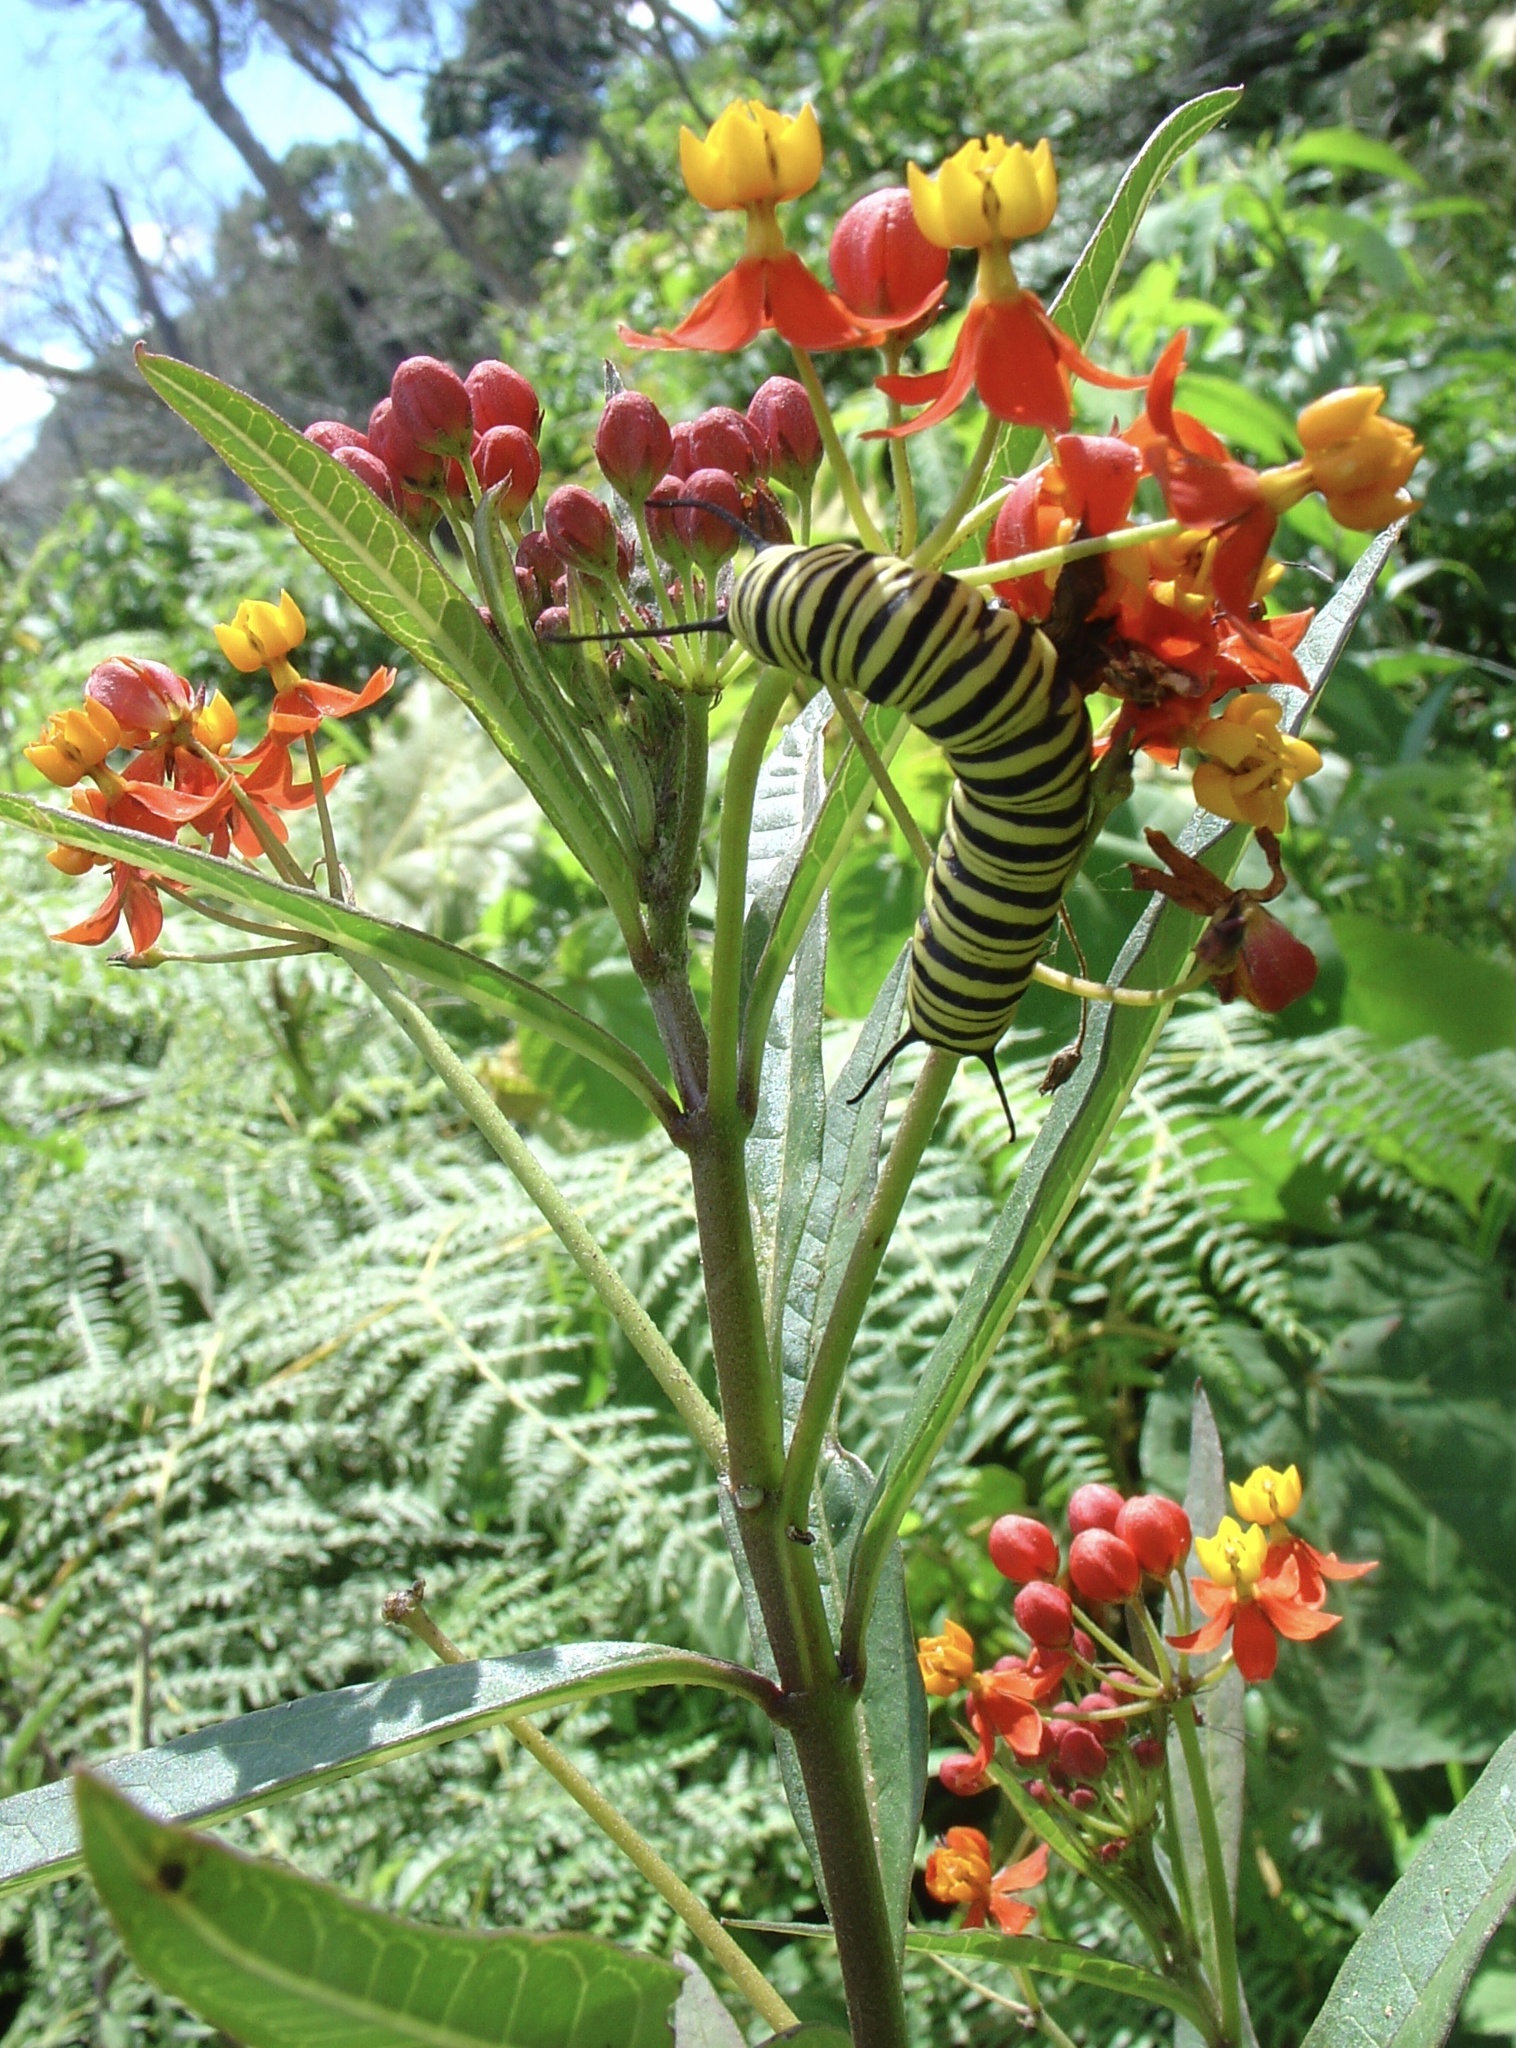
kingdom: Plantae
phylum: Tracheophyta
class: Magnoliopsida
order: Gentianales
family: Apocynaceae
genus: Asclepias
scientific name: Asclepias curassavica
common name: Bloodflower
